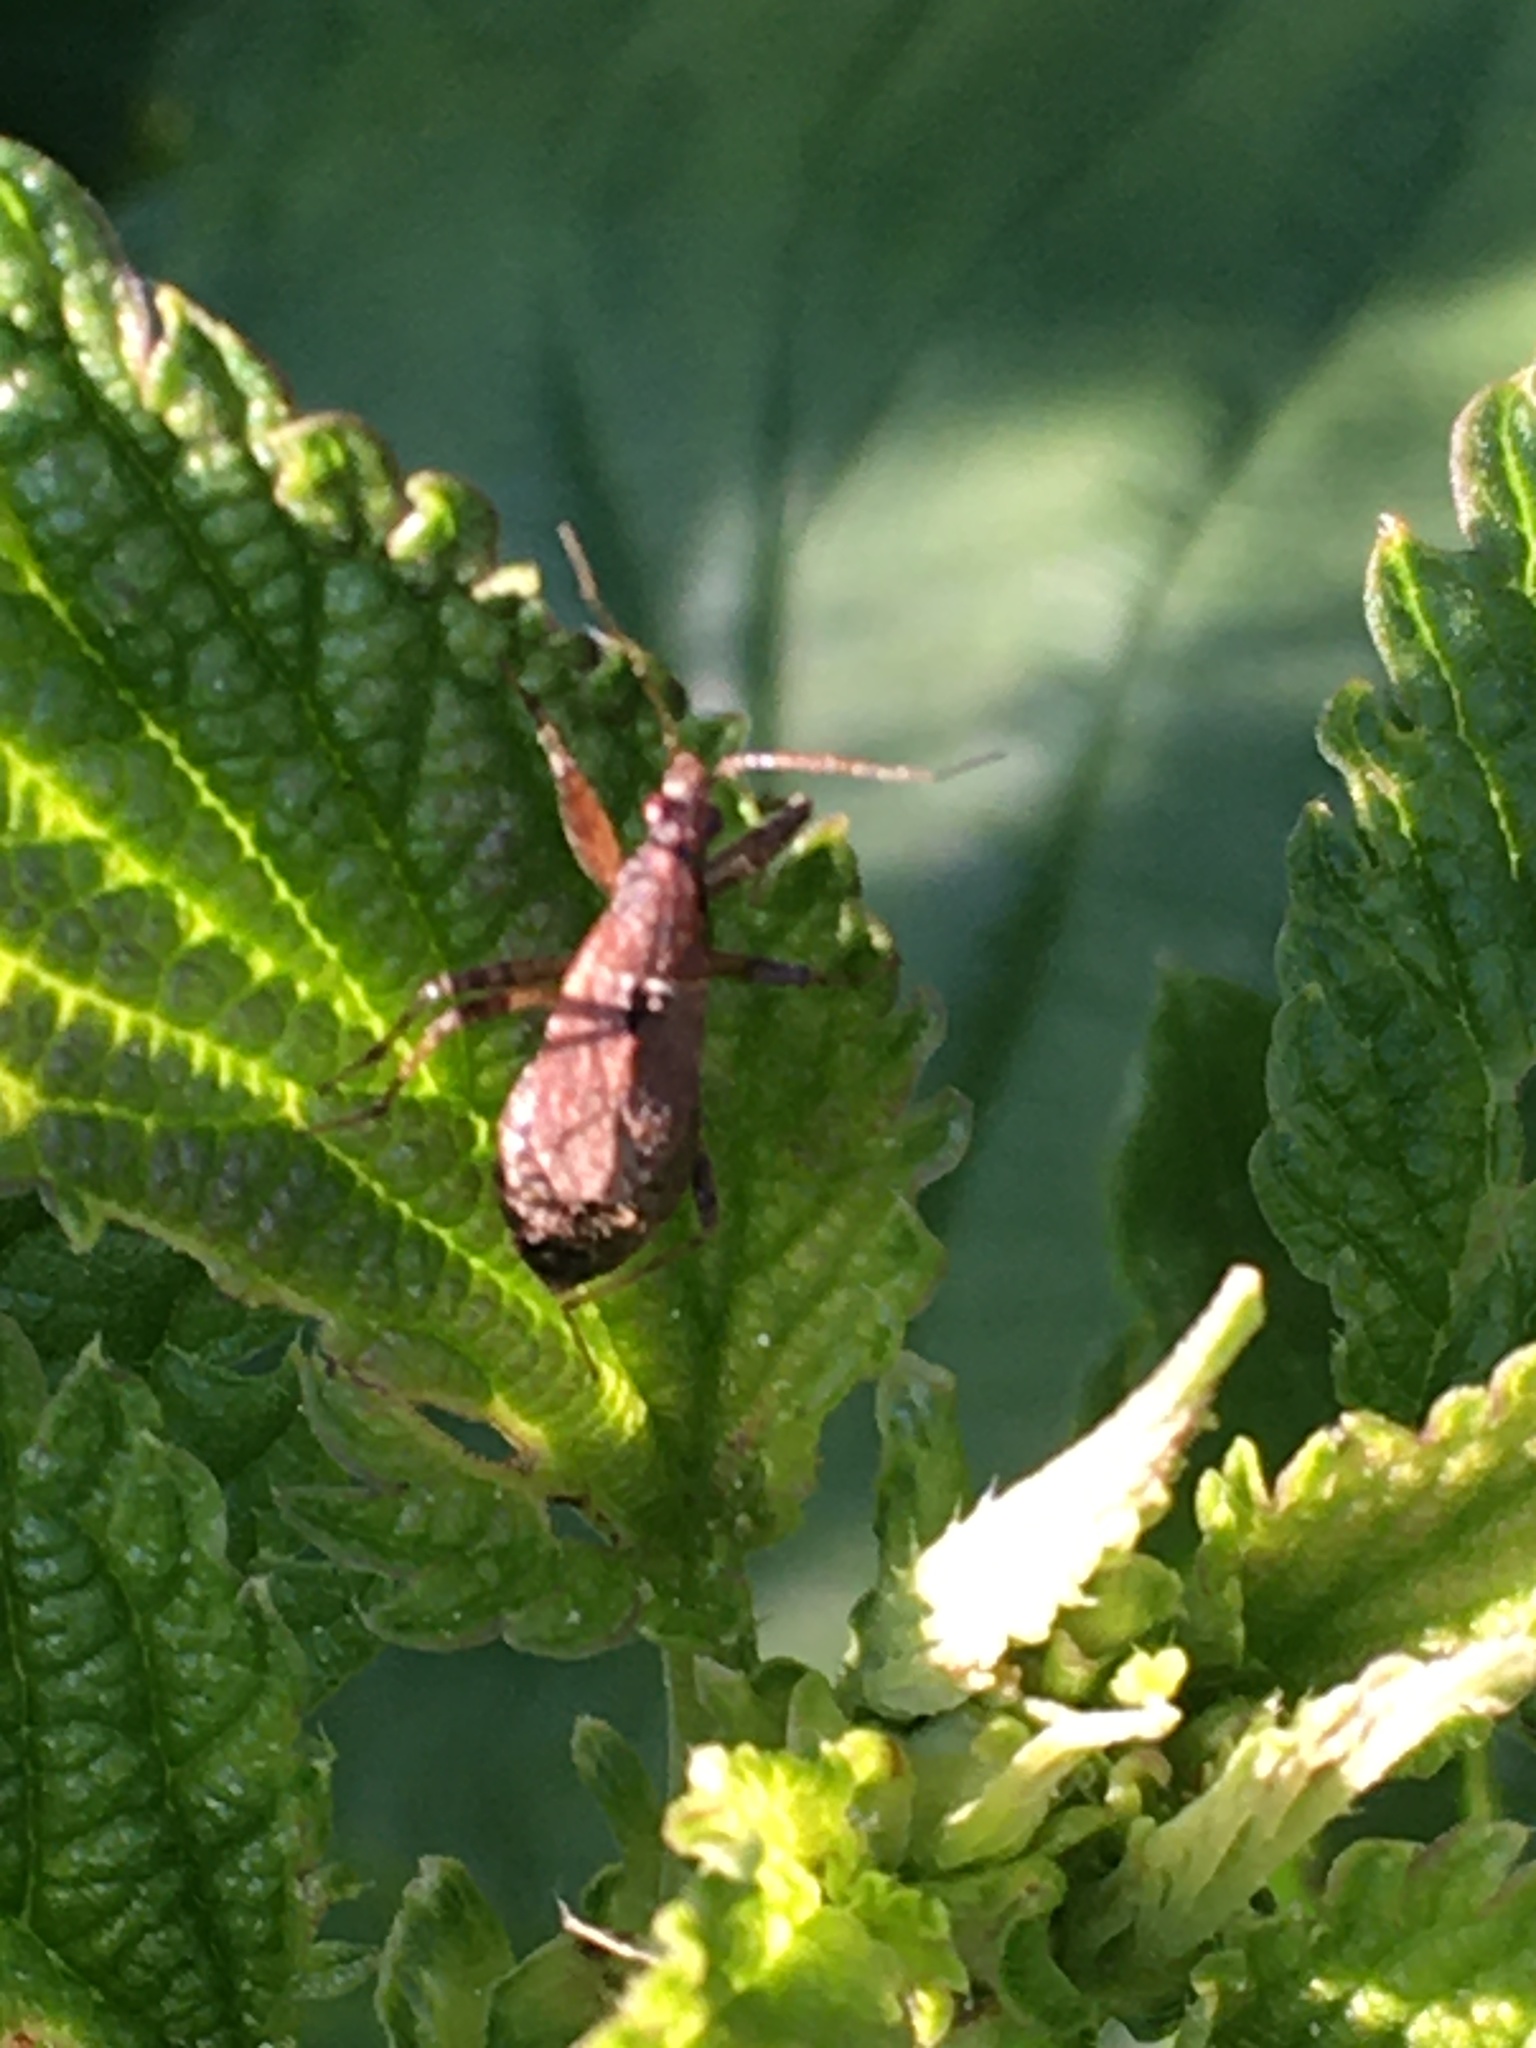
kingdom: Animalia
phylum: Arthropoda
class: Insecta
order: Hemiptera
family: Nabidae
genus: Himacerus
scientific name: Himacerus mirmicoides
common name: Ant damsel bug
